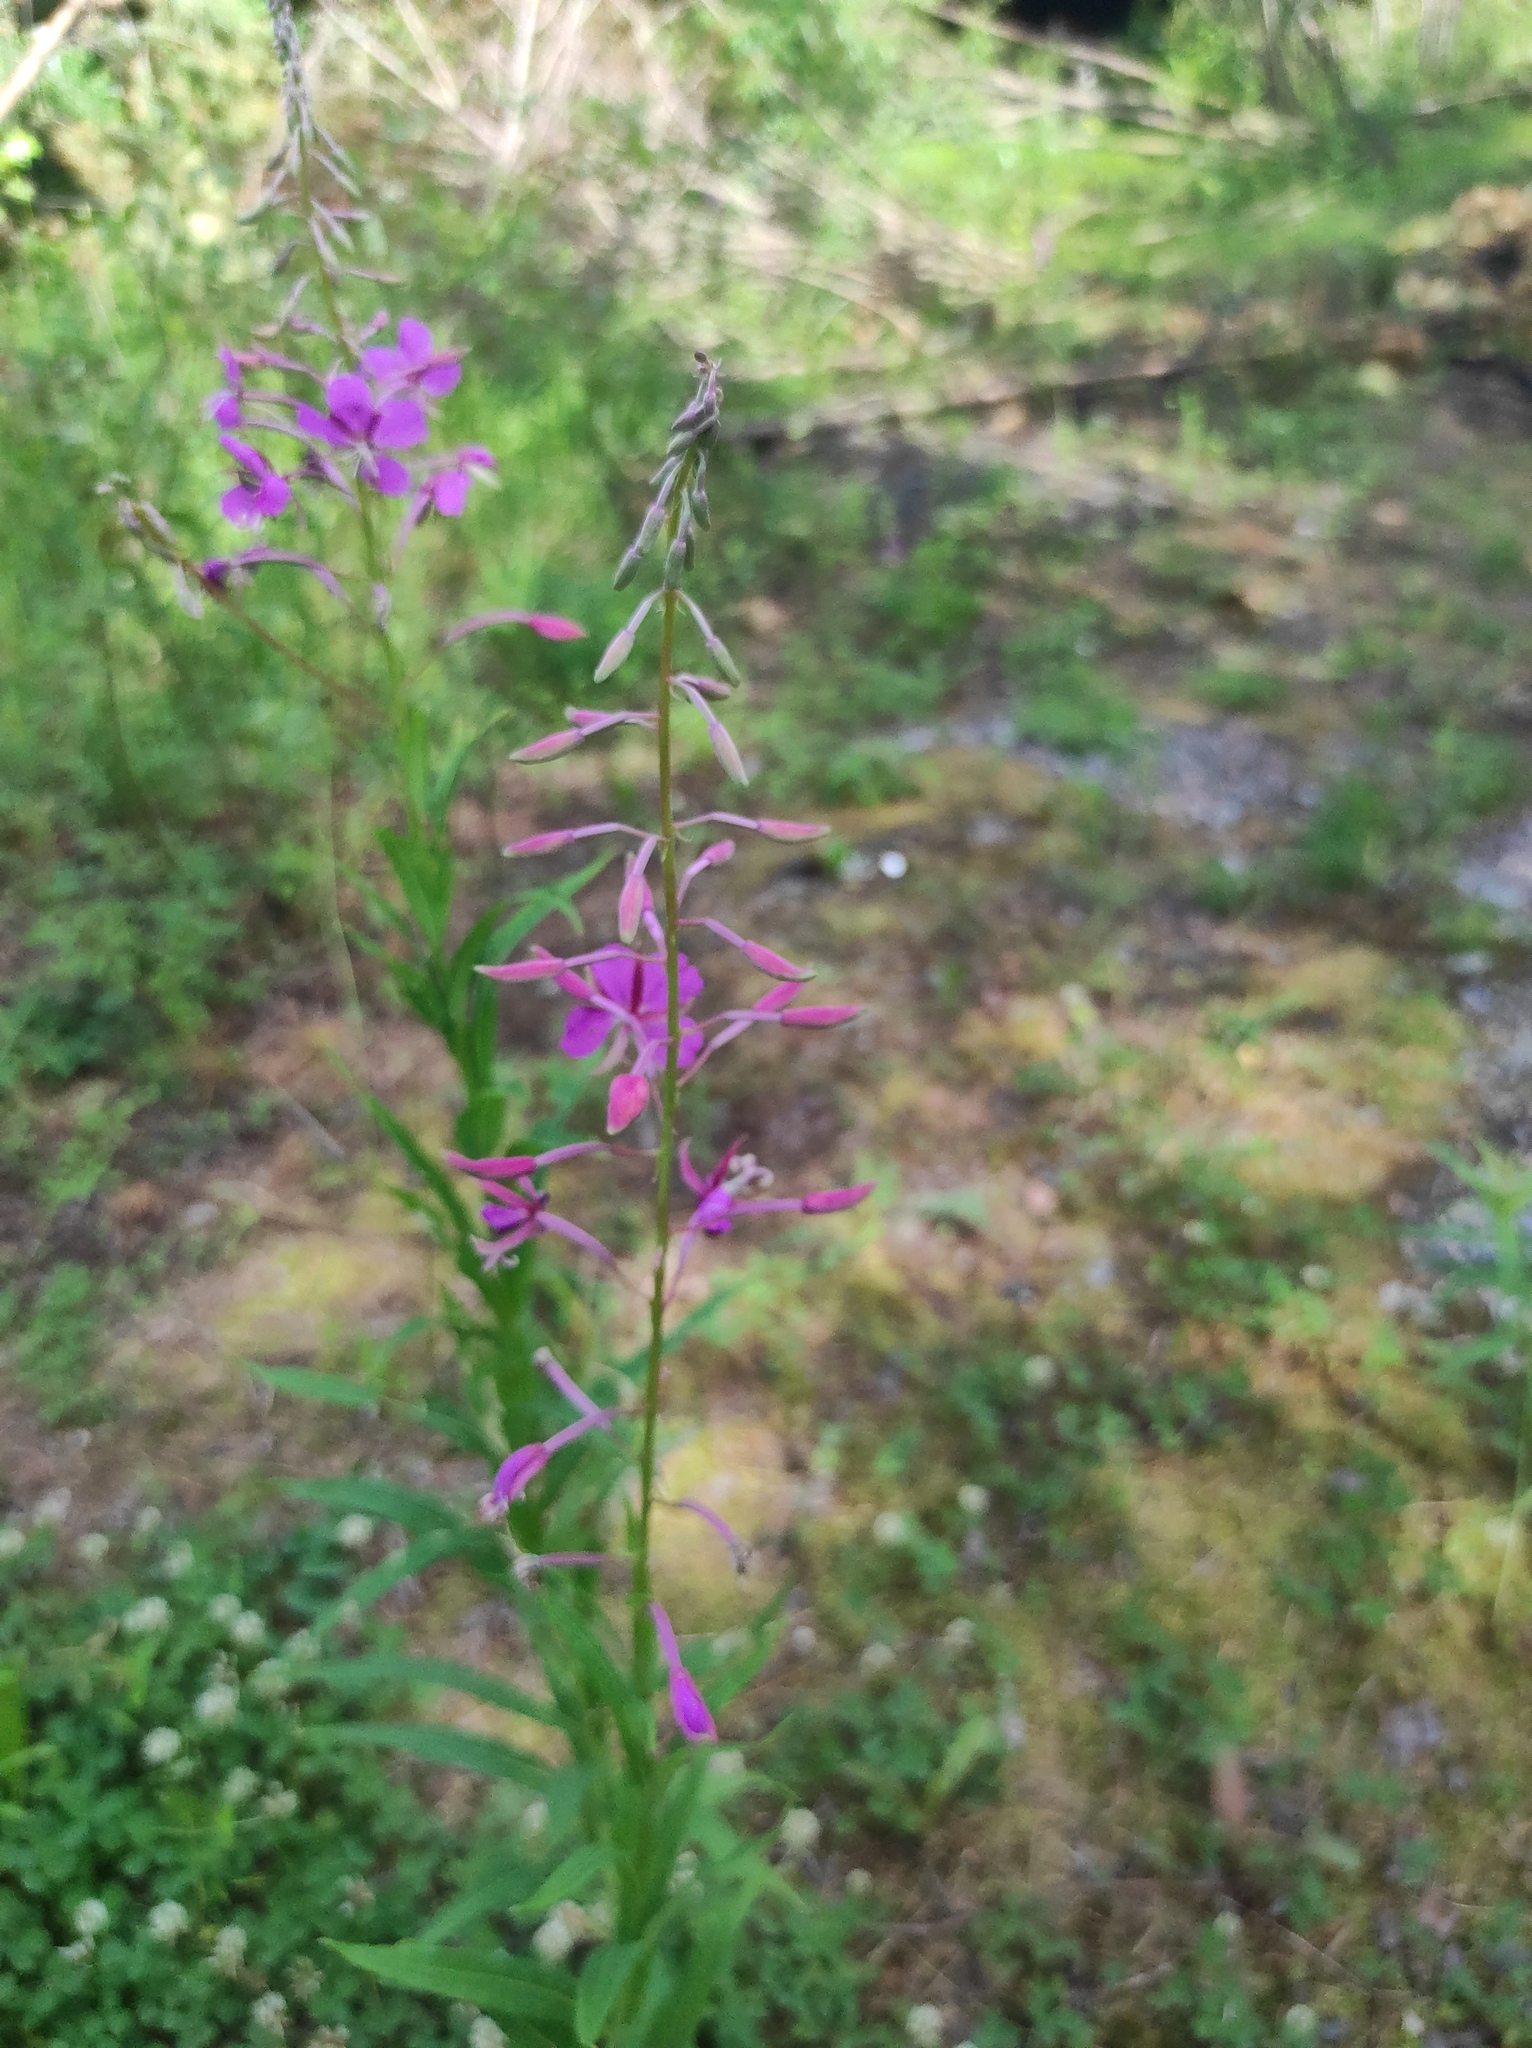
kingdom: Plantae
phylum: Tracheophyta
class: Magnoliopsida
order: Myrtales
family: Onagraceae
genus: Chamaenerion
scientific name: Chamaenerion angustifolium
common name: Fireweed
